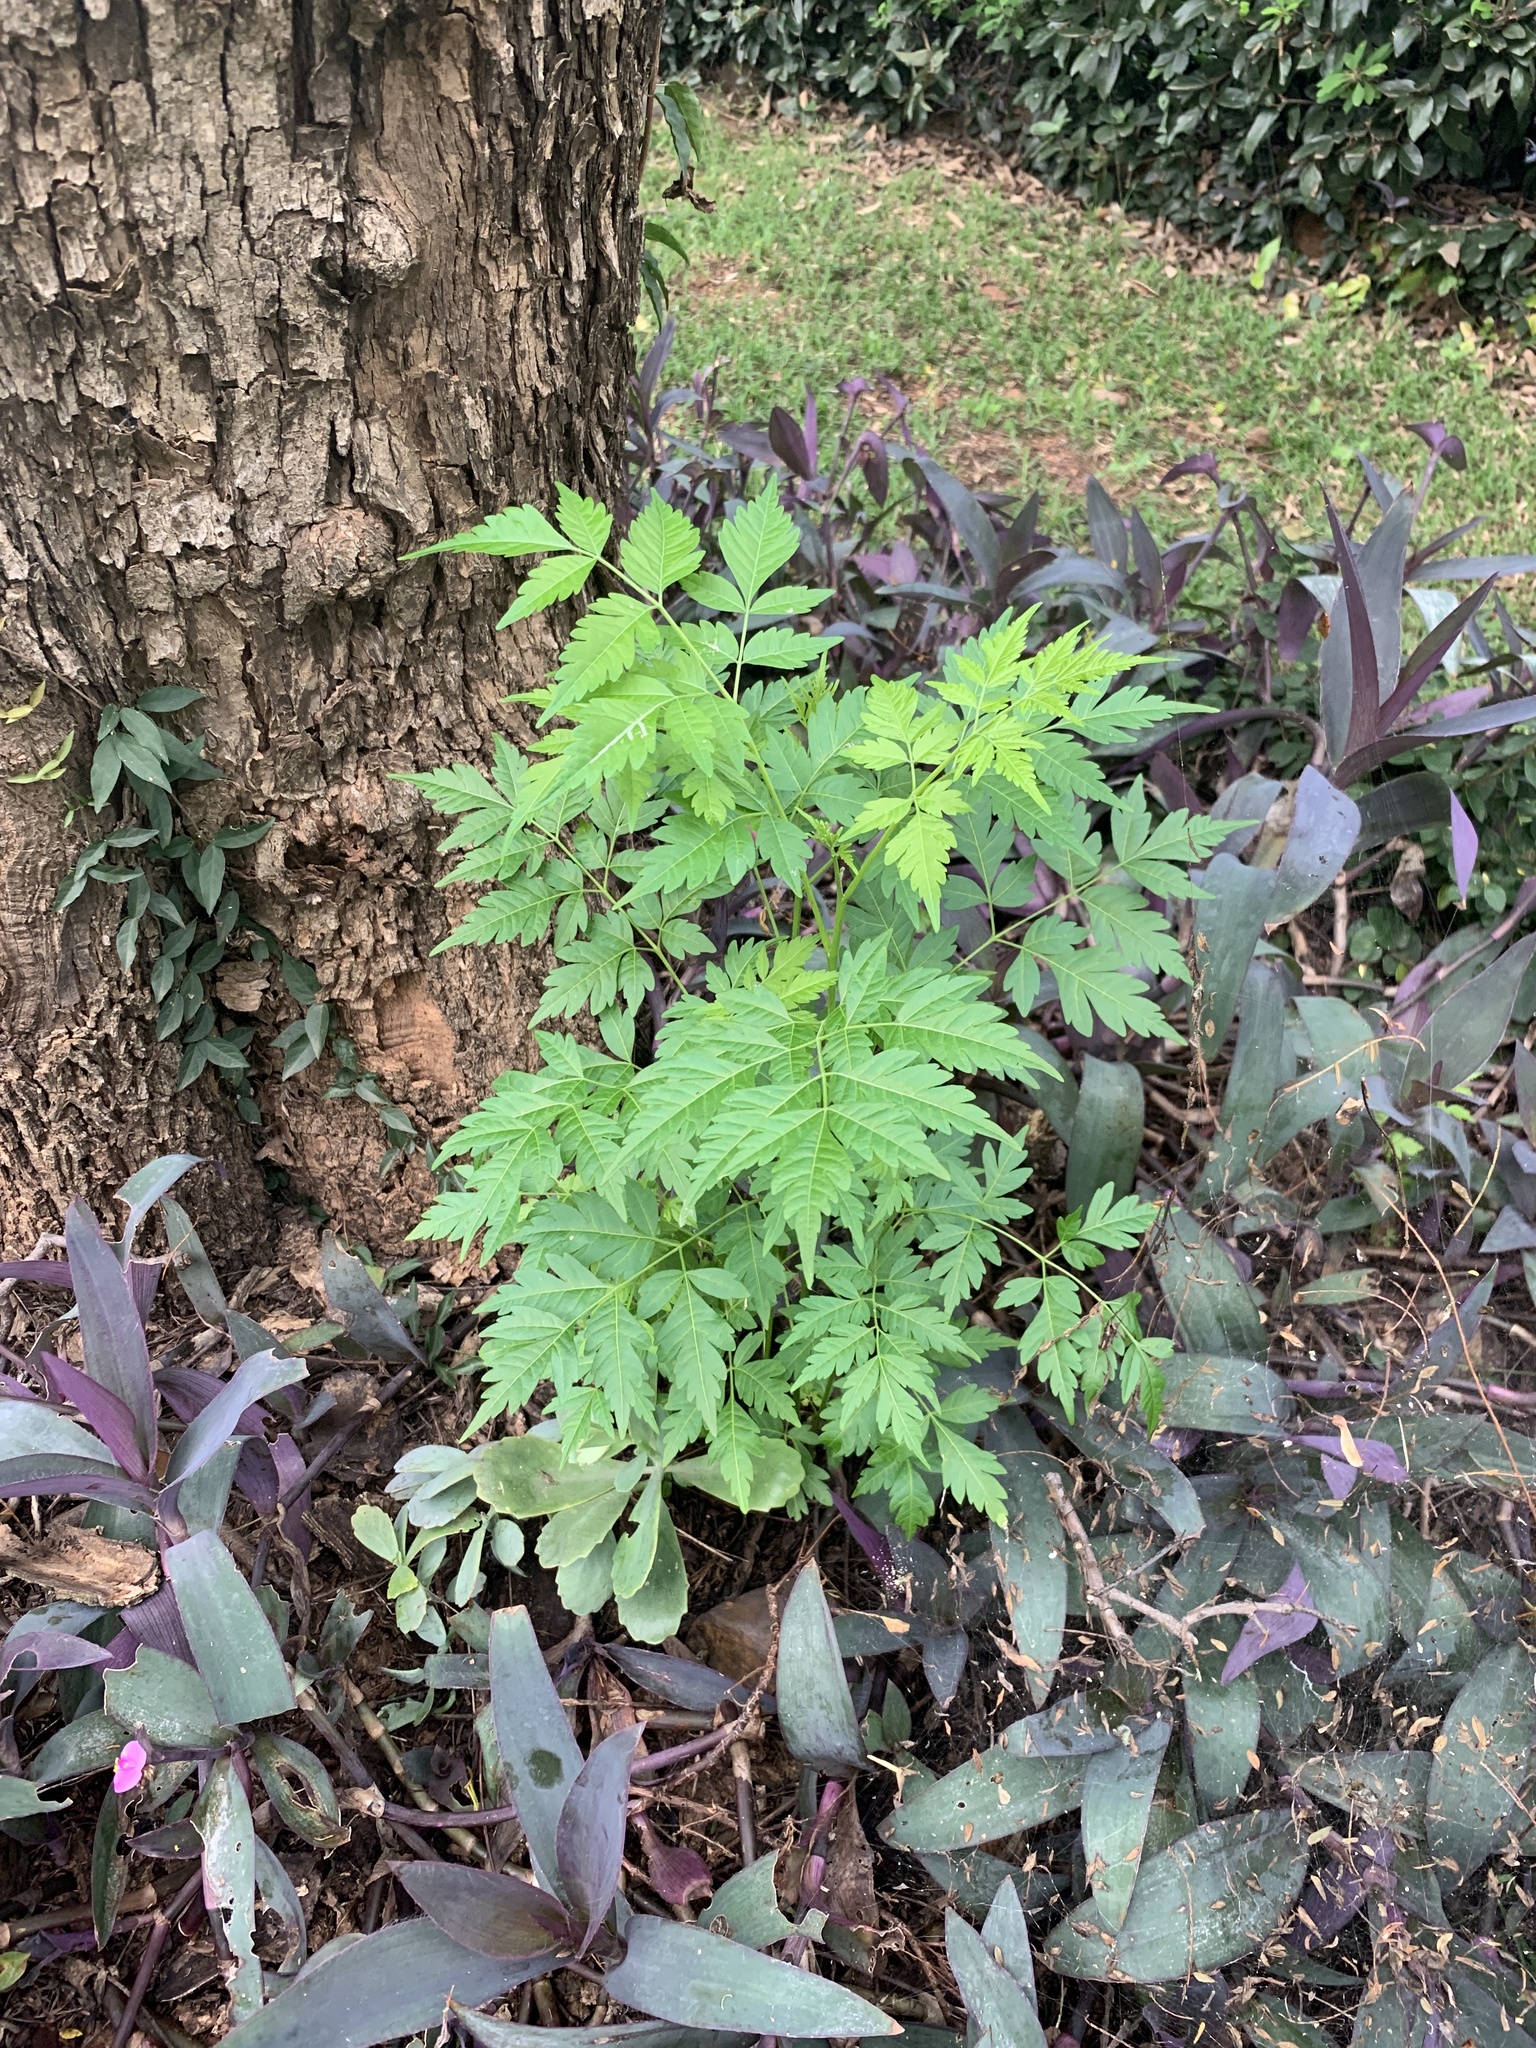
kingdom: Plantae
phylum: Tracheophyta
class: Magnoliopsida
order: Sapindales
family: Meliaceae
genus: Melia
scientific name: Melia azedarach
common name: Chinaberrytree
